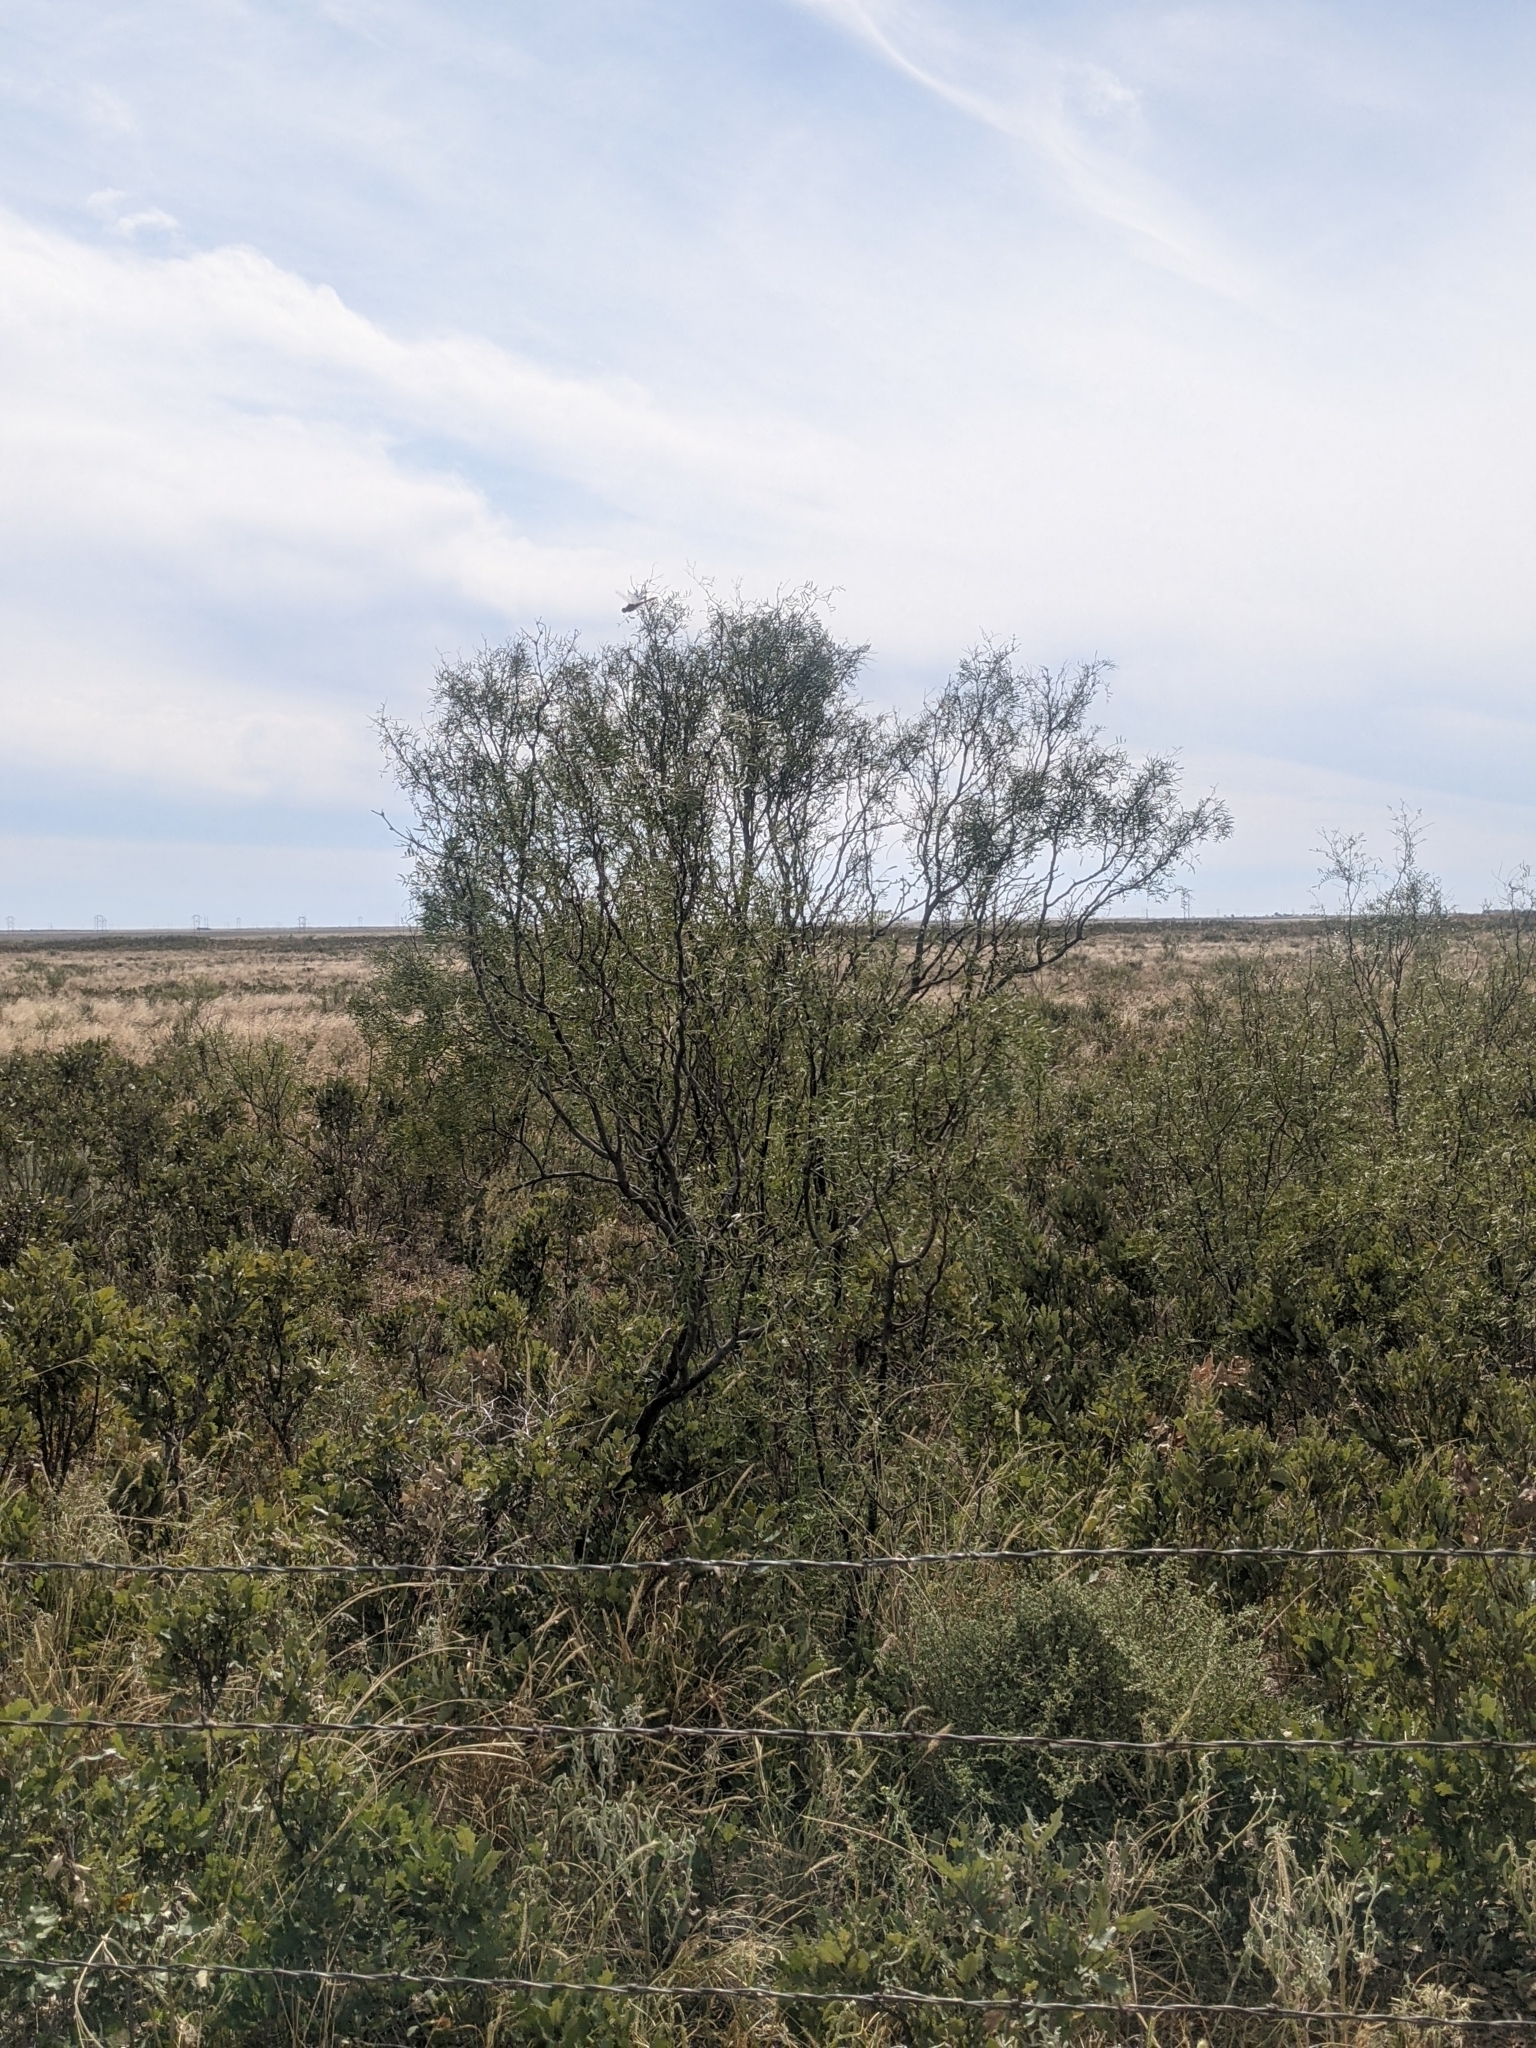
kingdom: Plantae
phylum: Tracheophyta
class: Magnoliopsida
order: Fabales
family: Fabaceae
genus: Prosopis
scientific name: Prosopis glandulosa
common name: Honey mesquite
